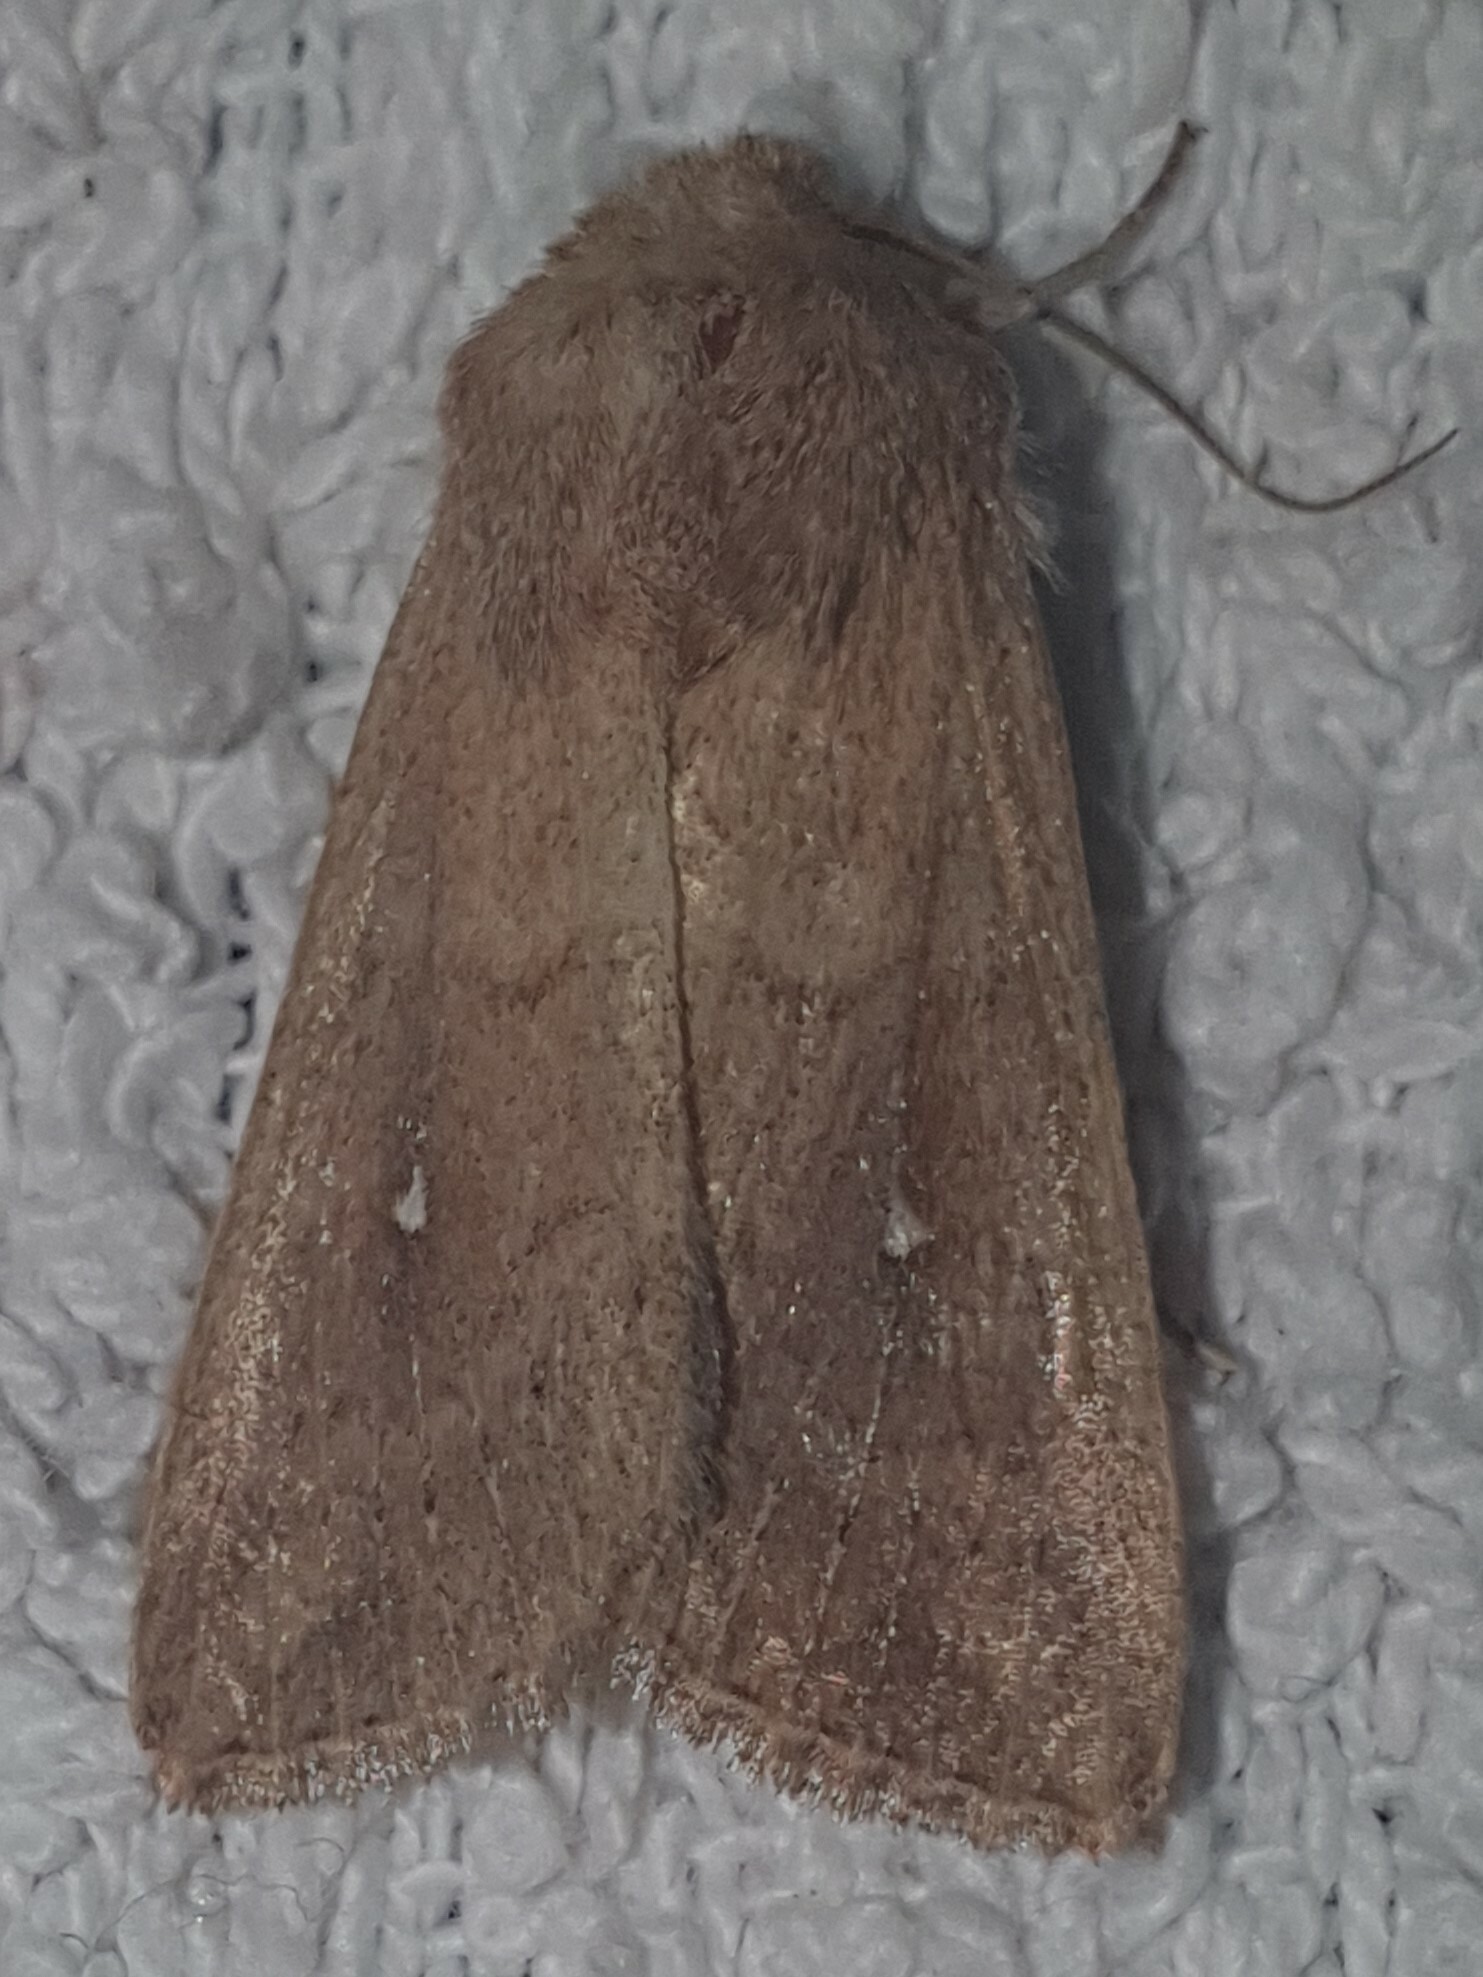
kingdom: Animalia
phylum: Arthropoda
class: Insecta
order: Lepidoptera
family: Noctuidae
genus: Mythimna
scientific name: Mythimna albipuncta
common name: White-point
